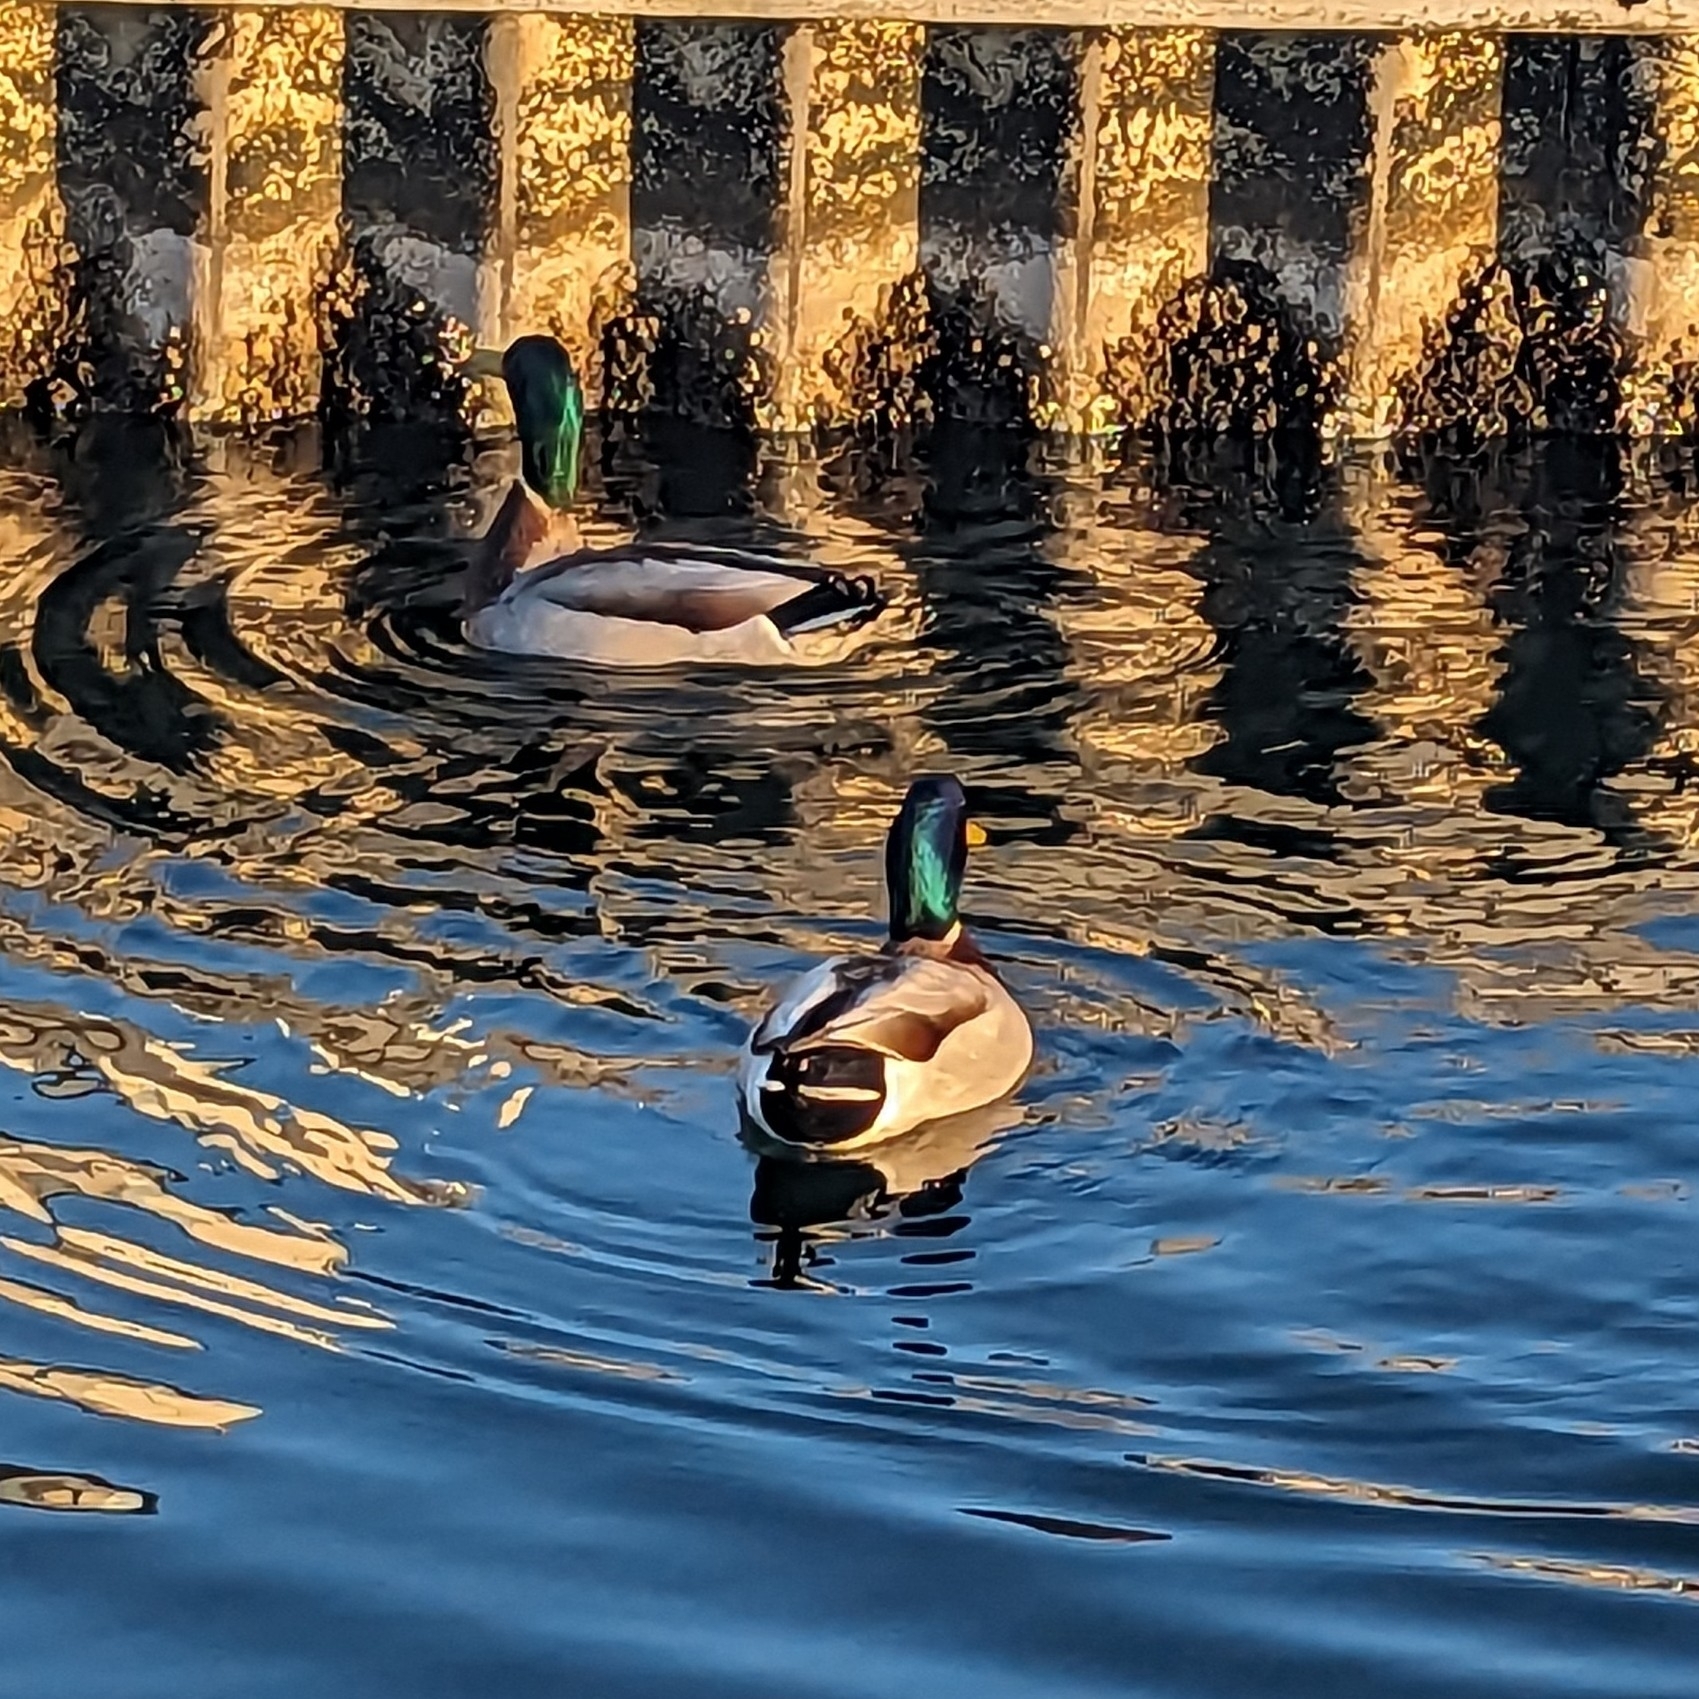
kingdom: Animalia
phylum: Chordata
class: Aves
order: Anseriformes
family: Anatidae
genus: Anas
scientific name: Anas platyrhynchos
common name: Mallard
